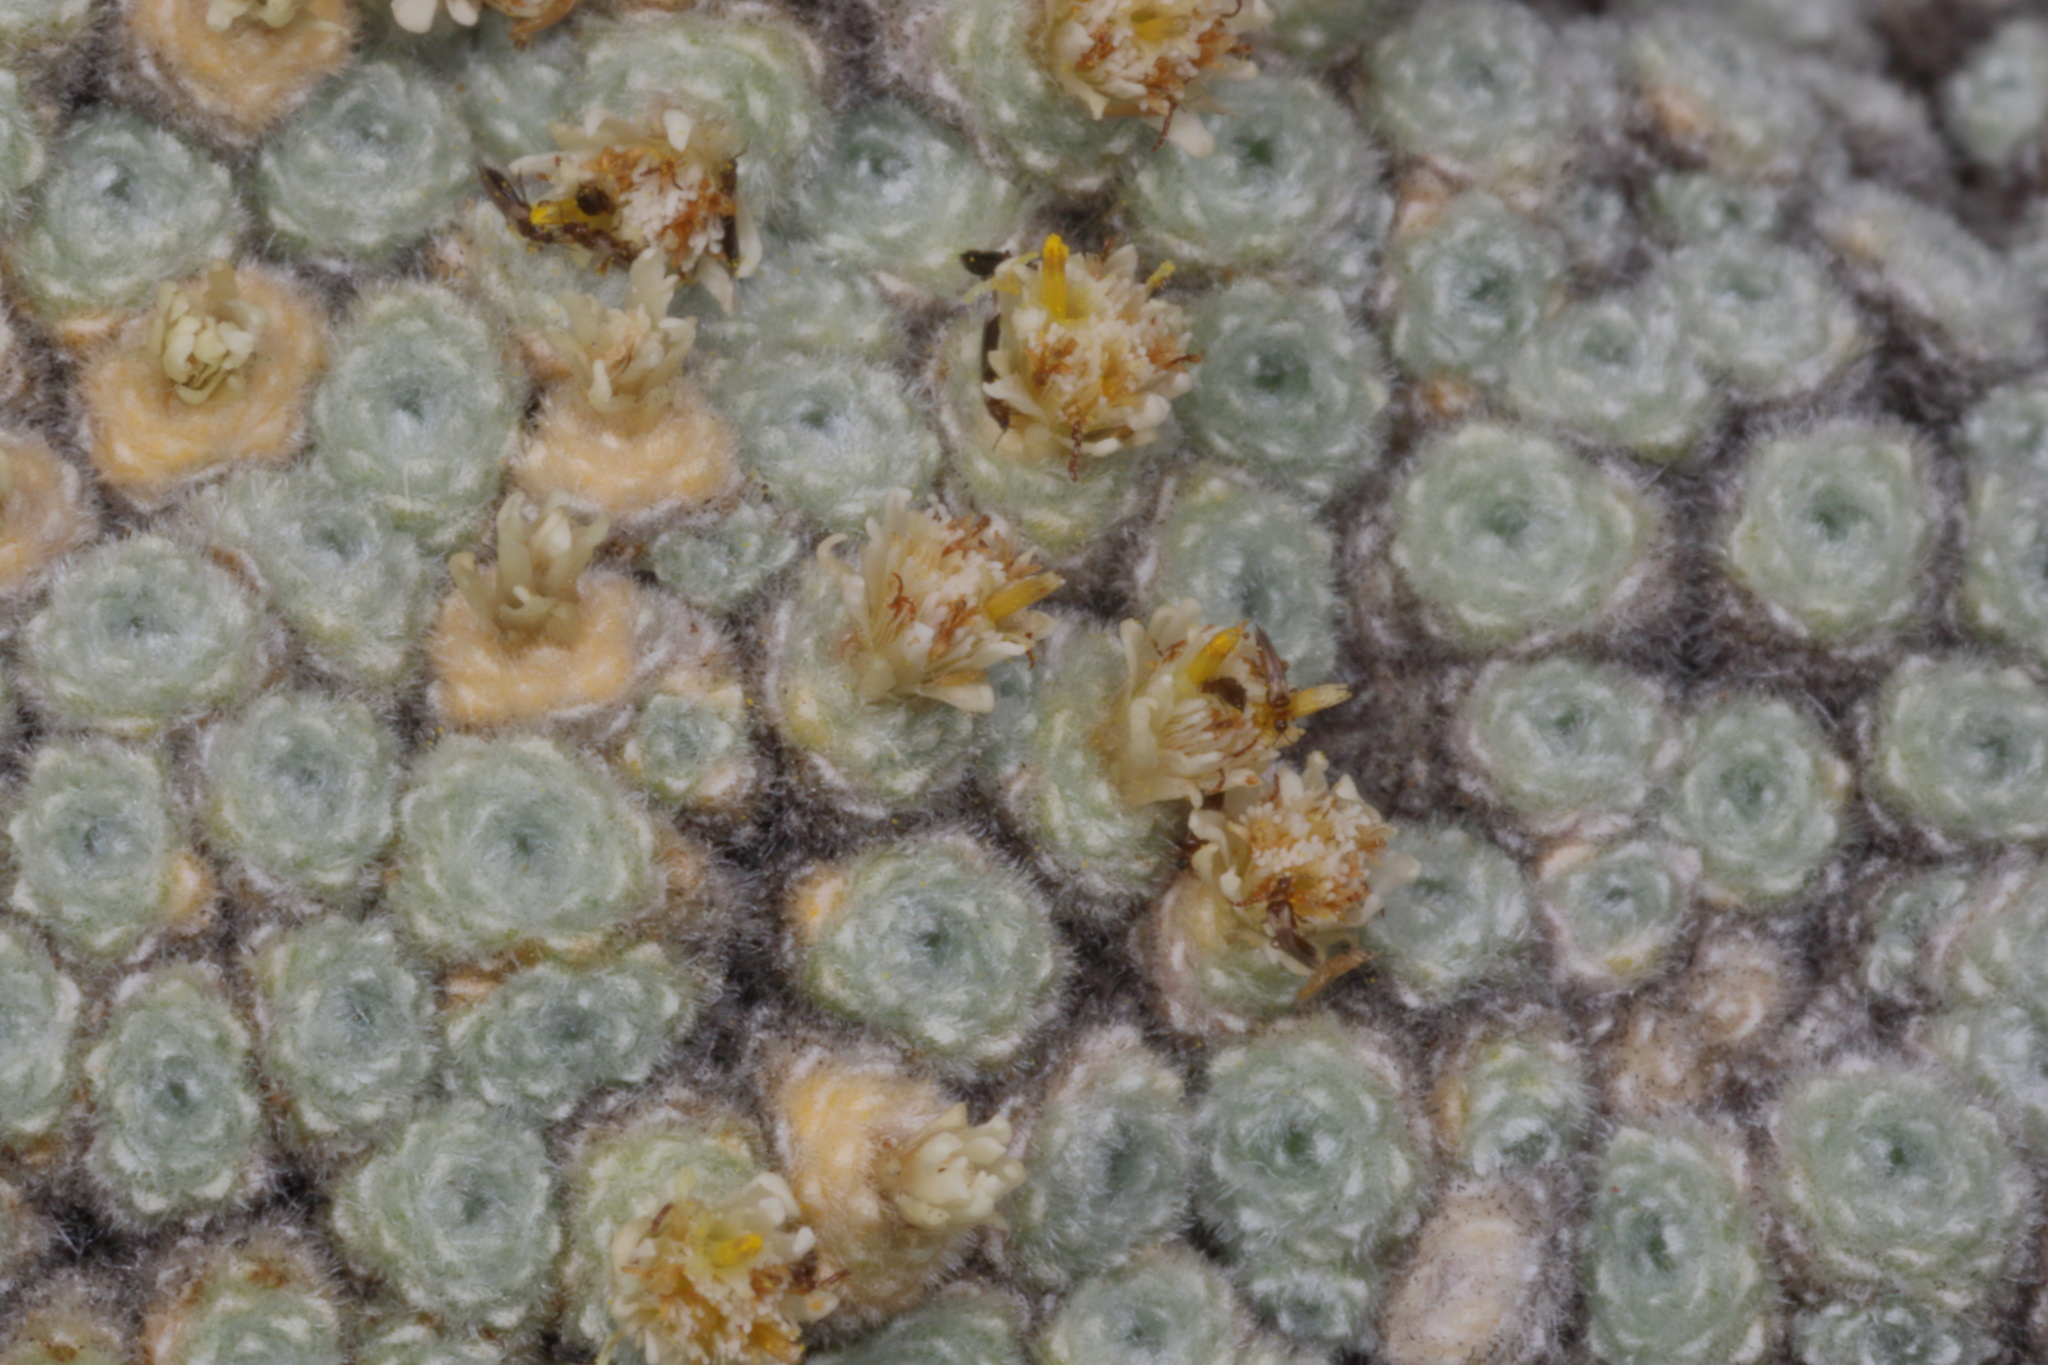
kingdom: Plantae
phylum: Tracheophyta
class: Magnoliopsida
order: Asterales
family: Asteraceae
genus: Raoulia
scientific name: Raoulia mammillaris
